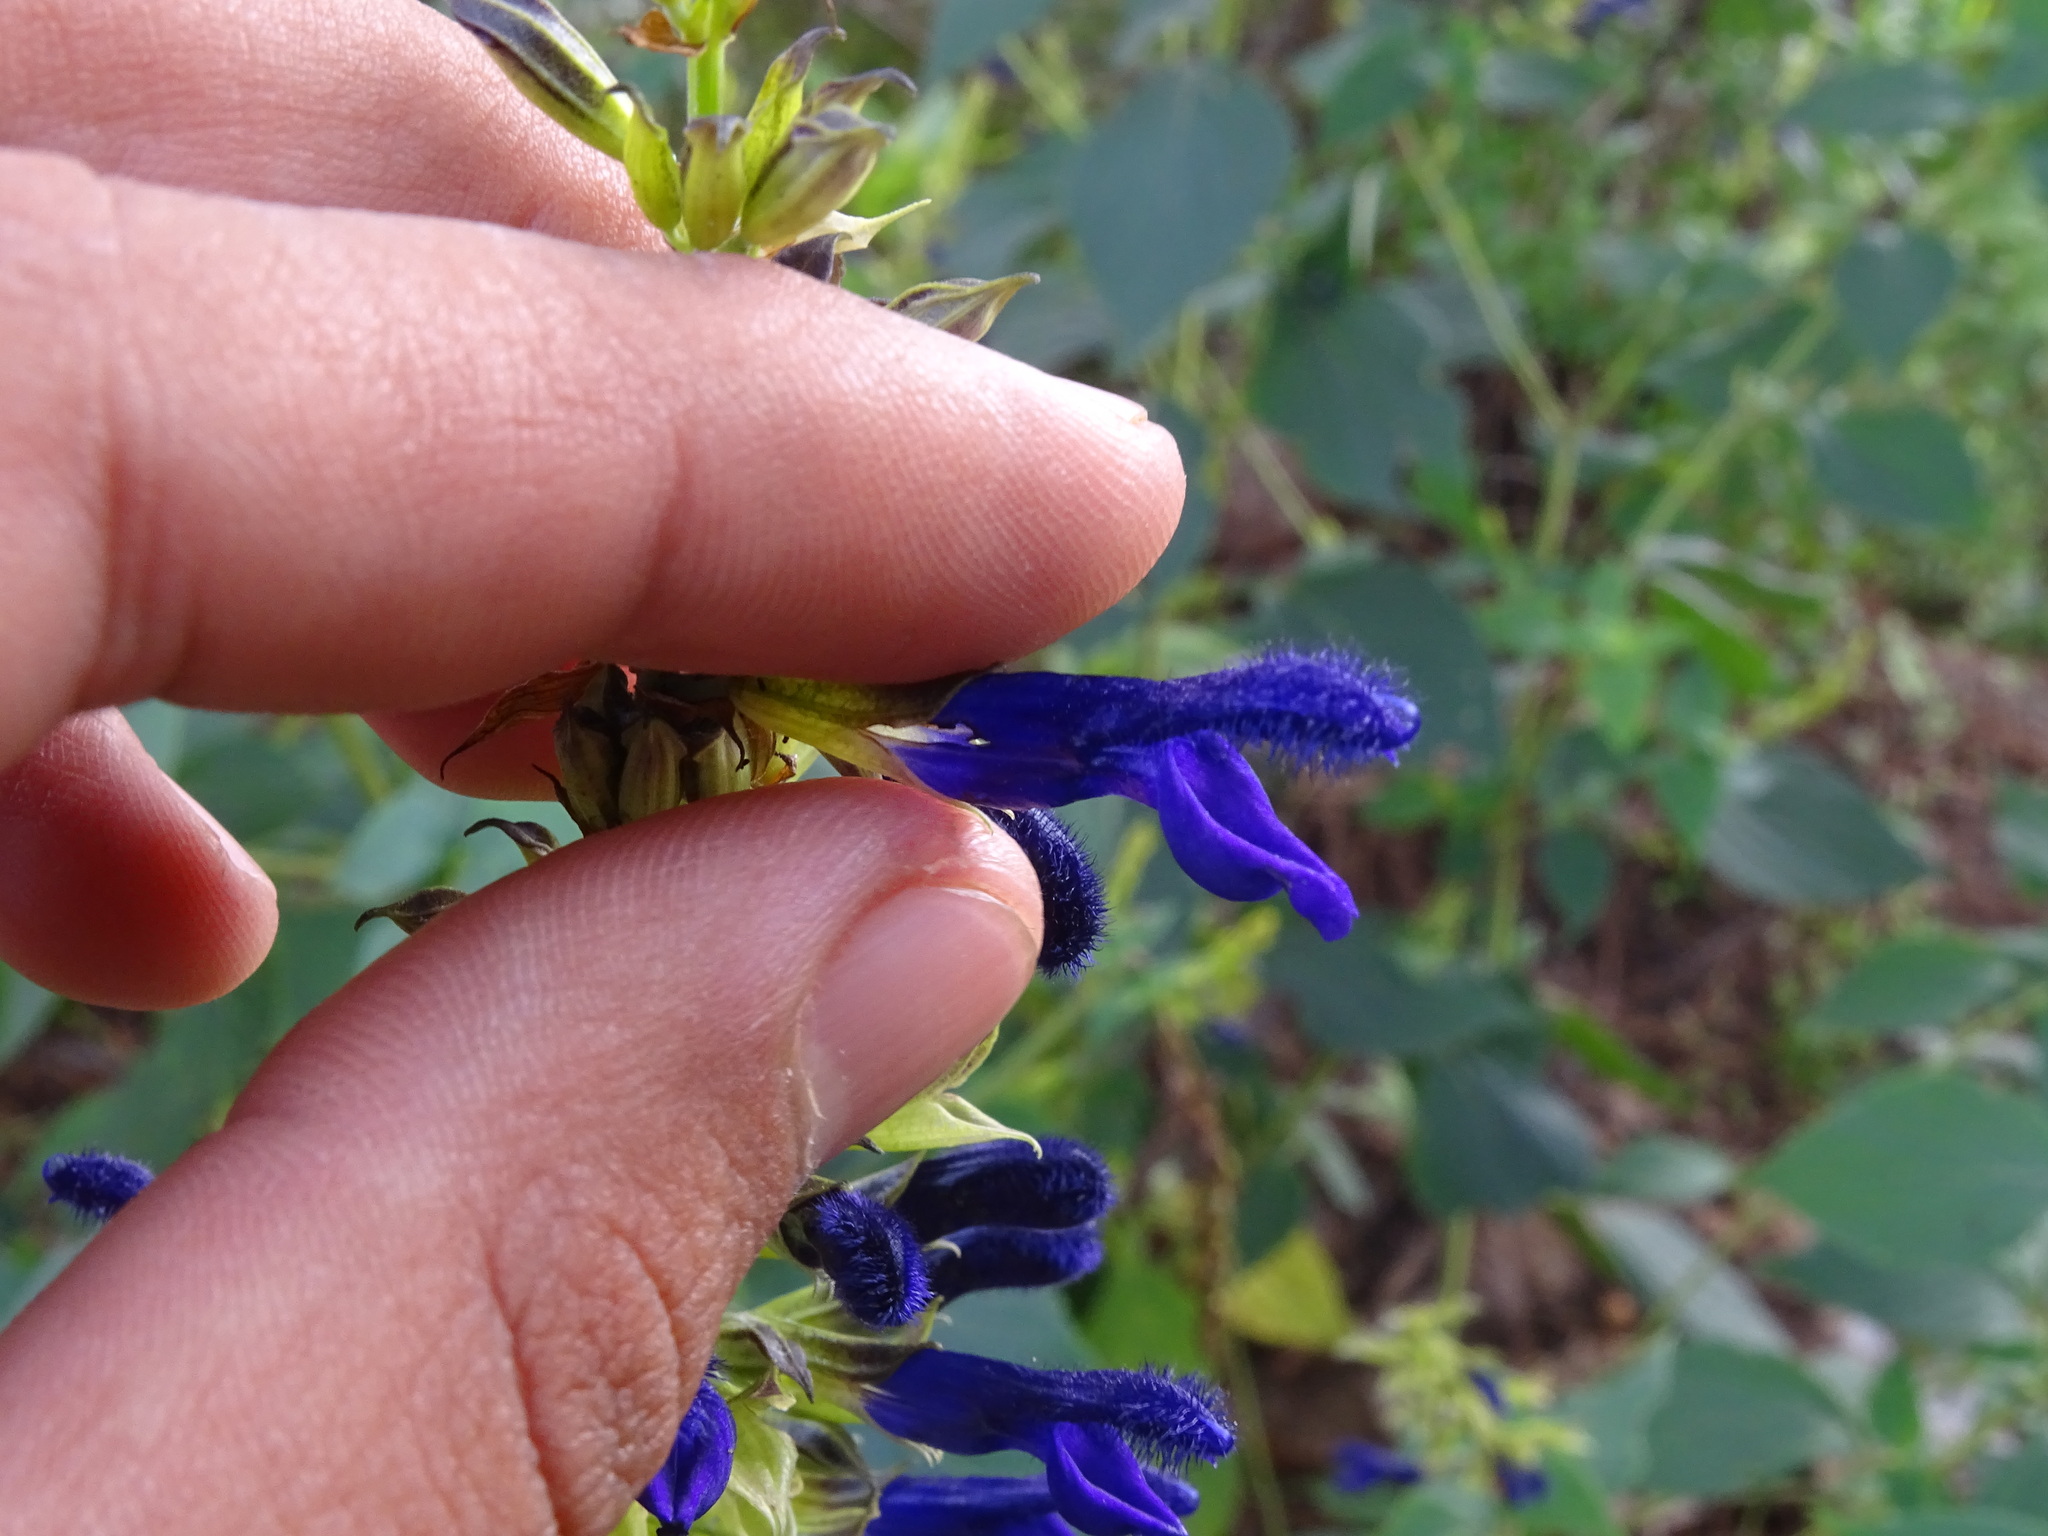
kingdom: Plantae
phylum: Tracheophyta
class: Magnoliopsida
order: Lamiales
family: Lamiaceae
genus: Salvia
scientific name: Salvia mexicana
